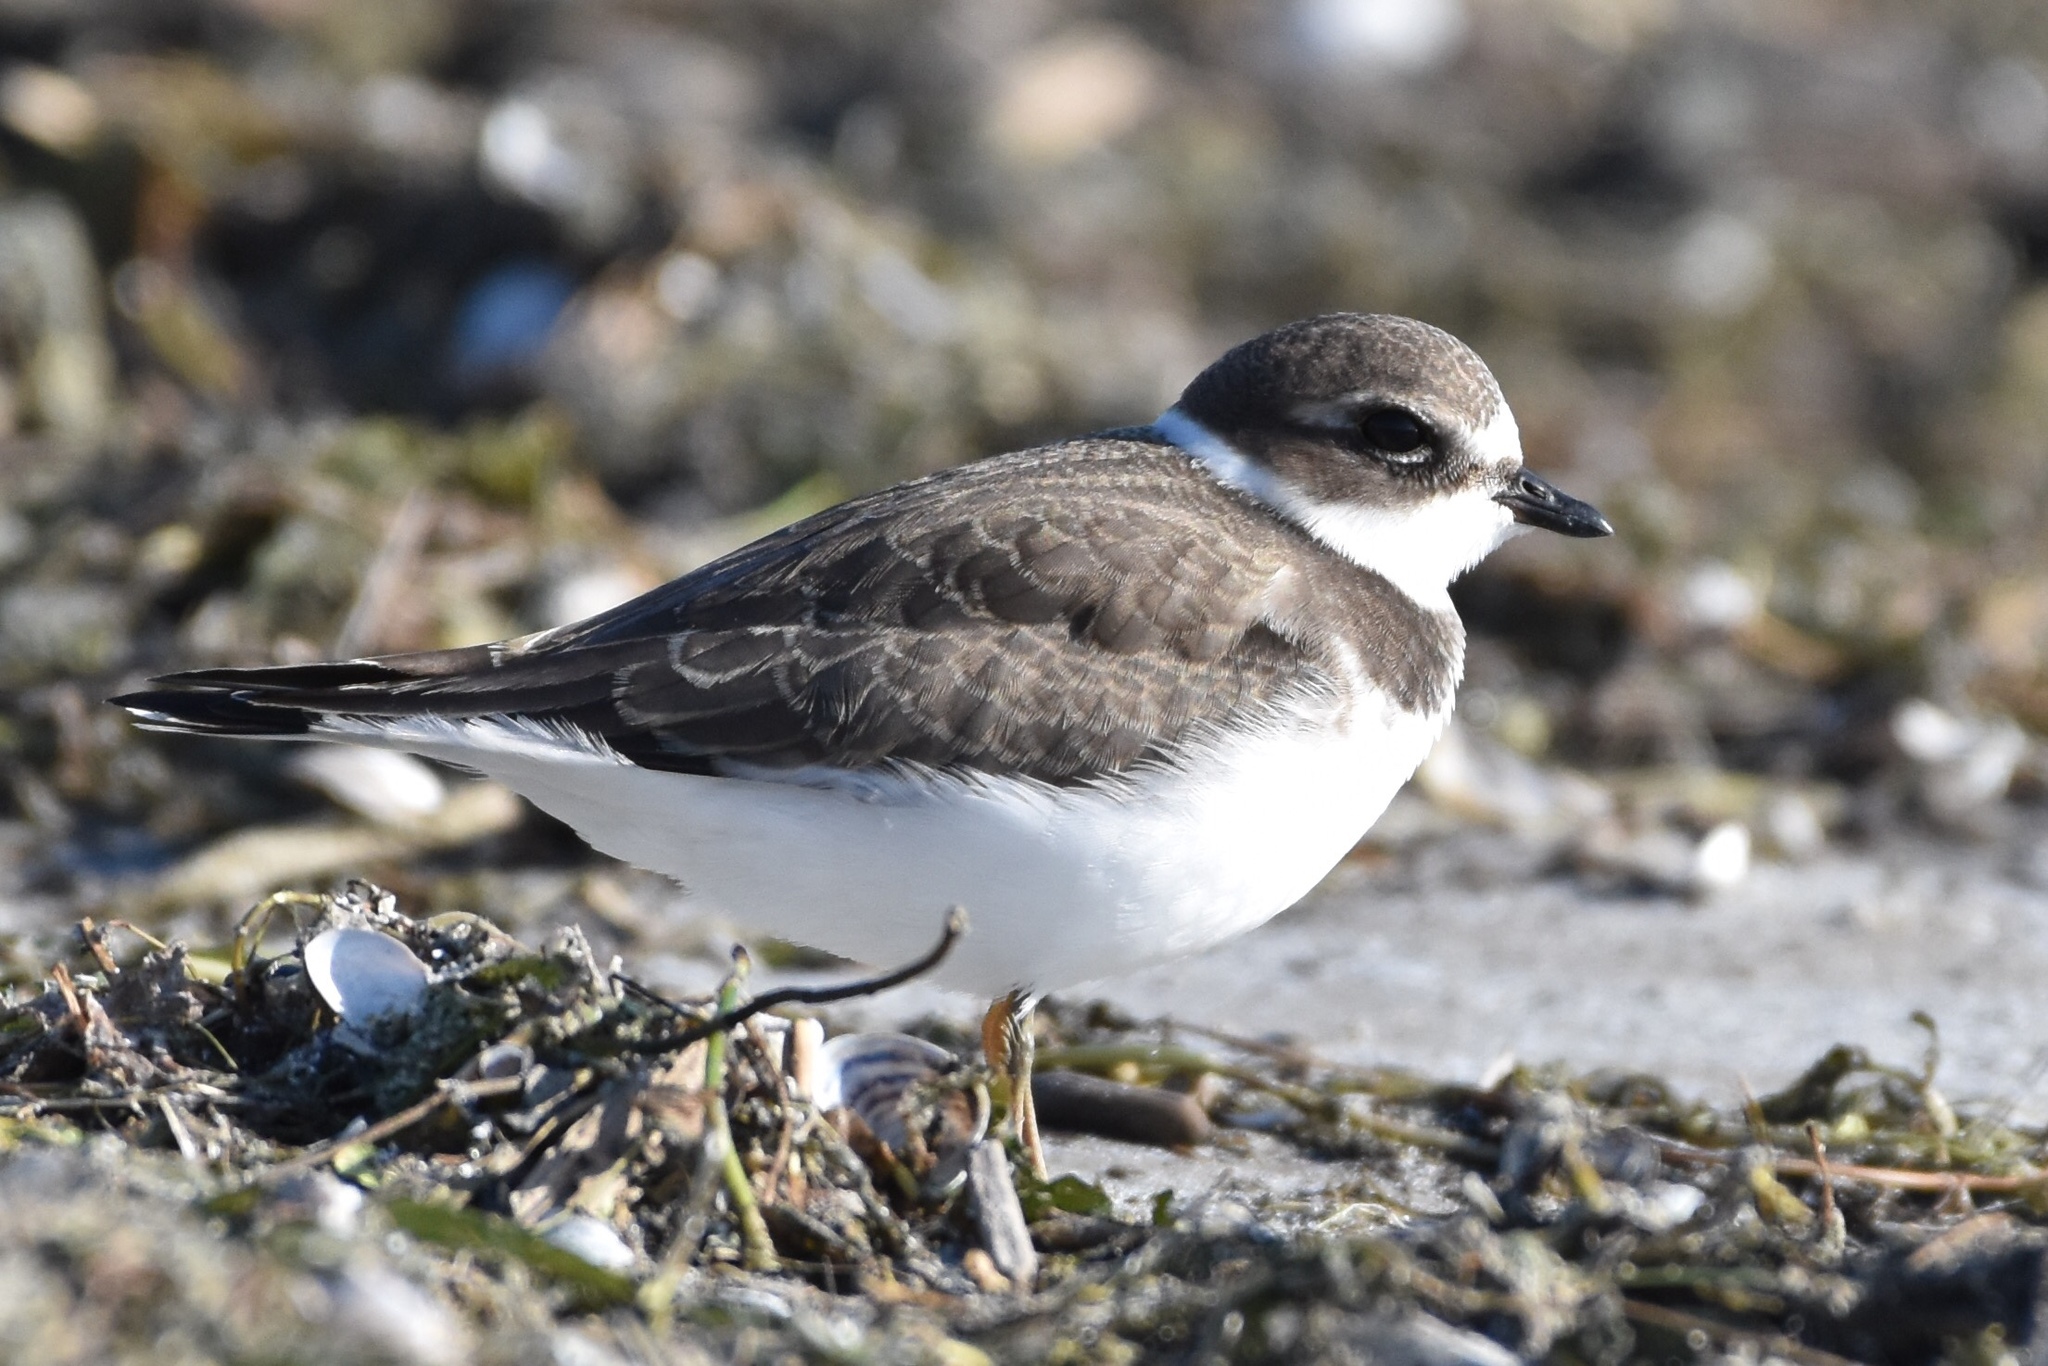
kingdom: Animalia
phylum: Chordata
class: Aves
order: Charadriiformes
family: Charadriidae
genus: Charadrius
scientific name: Charadrius semipalmatus
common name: Semipalmated plover
